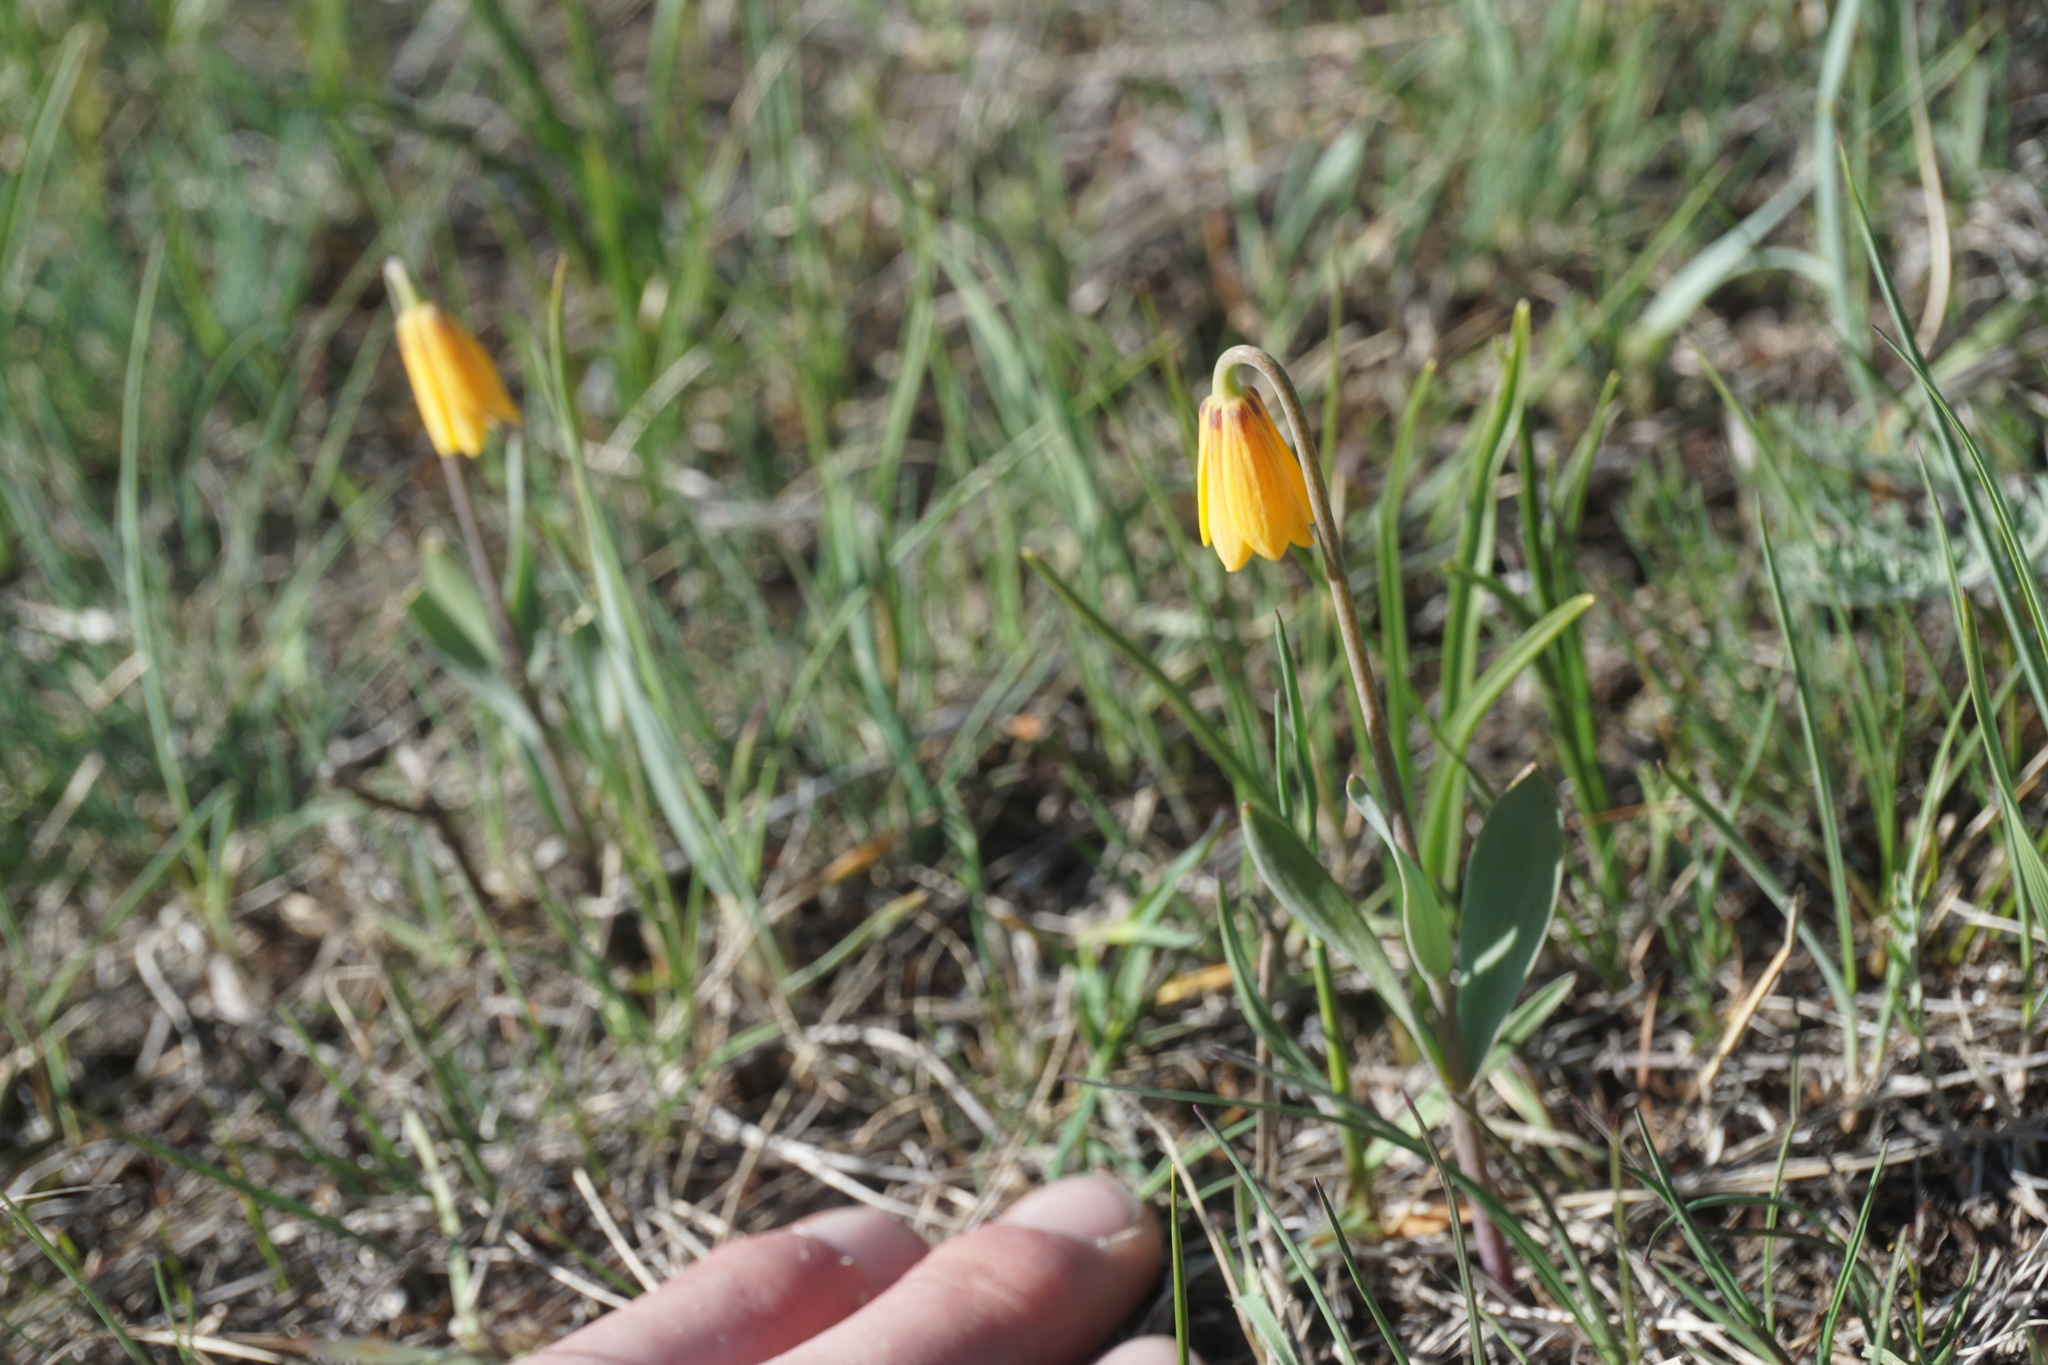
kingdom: Plantae
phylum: Tracheophyta
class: Liliopsida
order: Liliales
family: Liliaceae
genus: Fritillaria
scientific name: Fritillaria pudica
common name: Yellow fritillary
